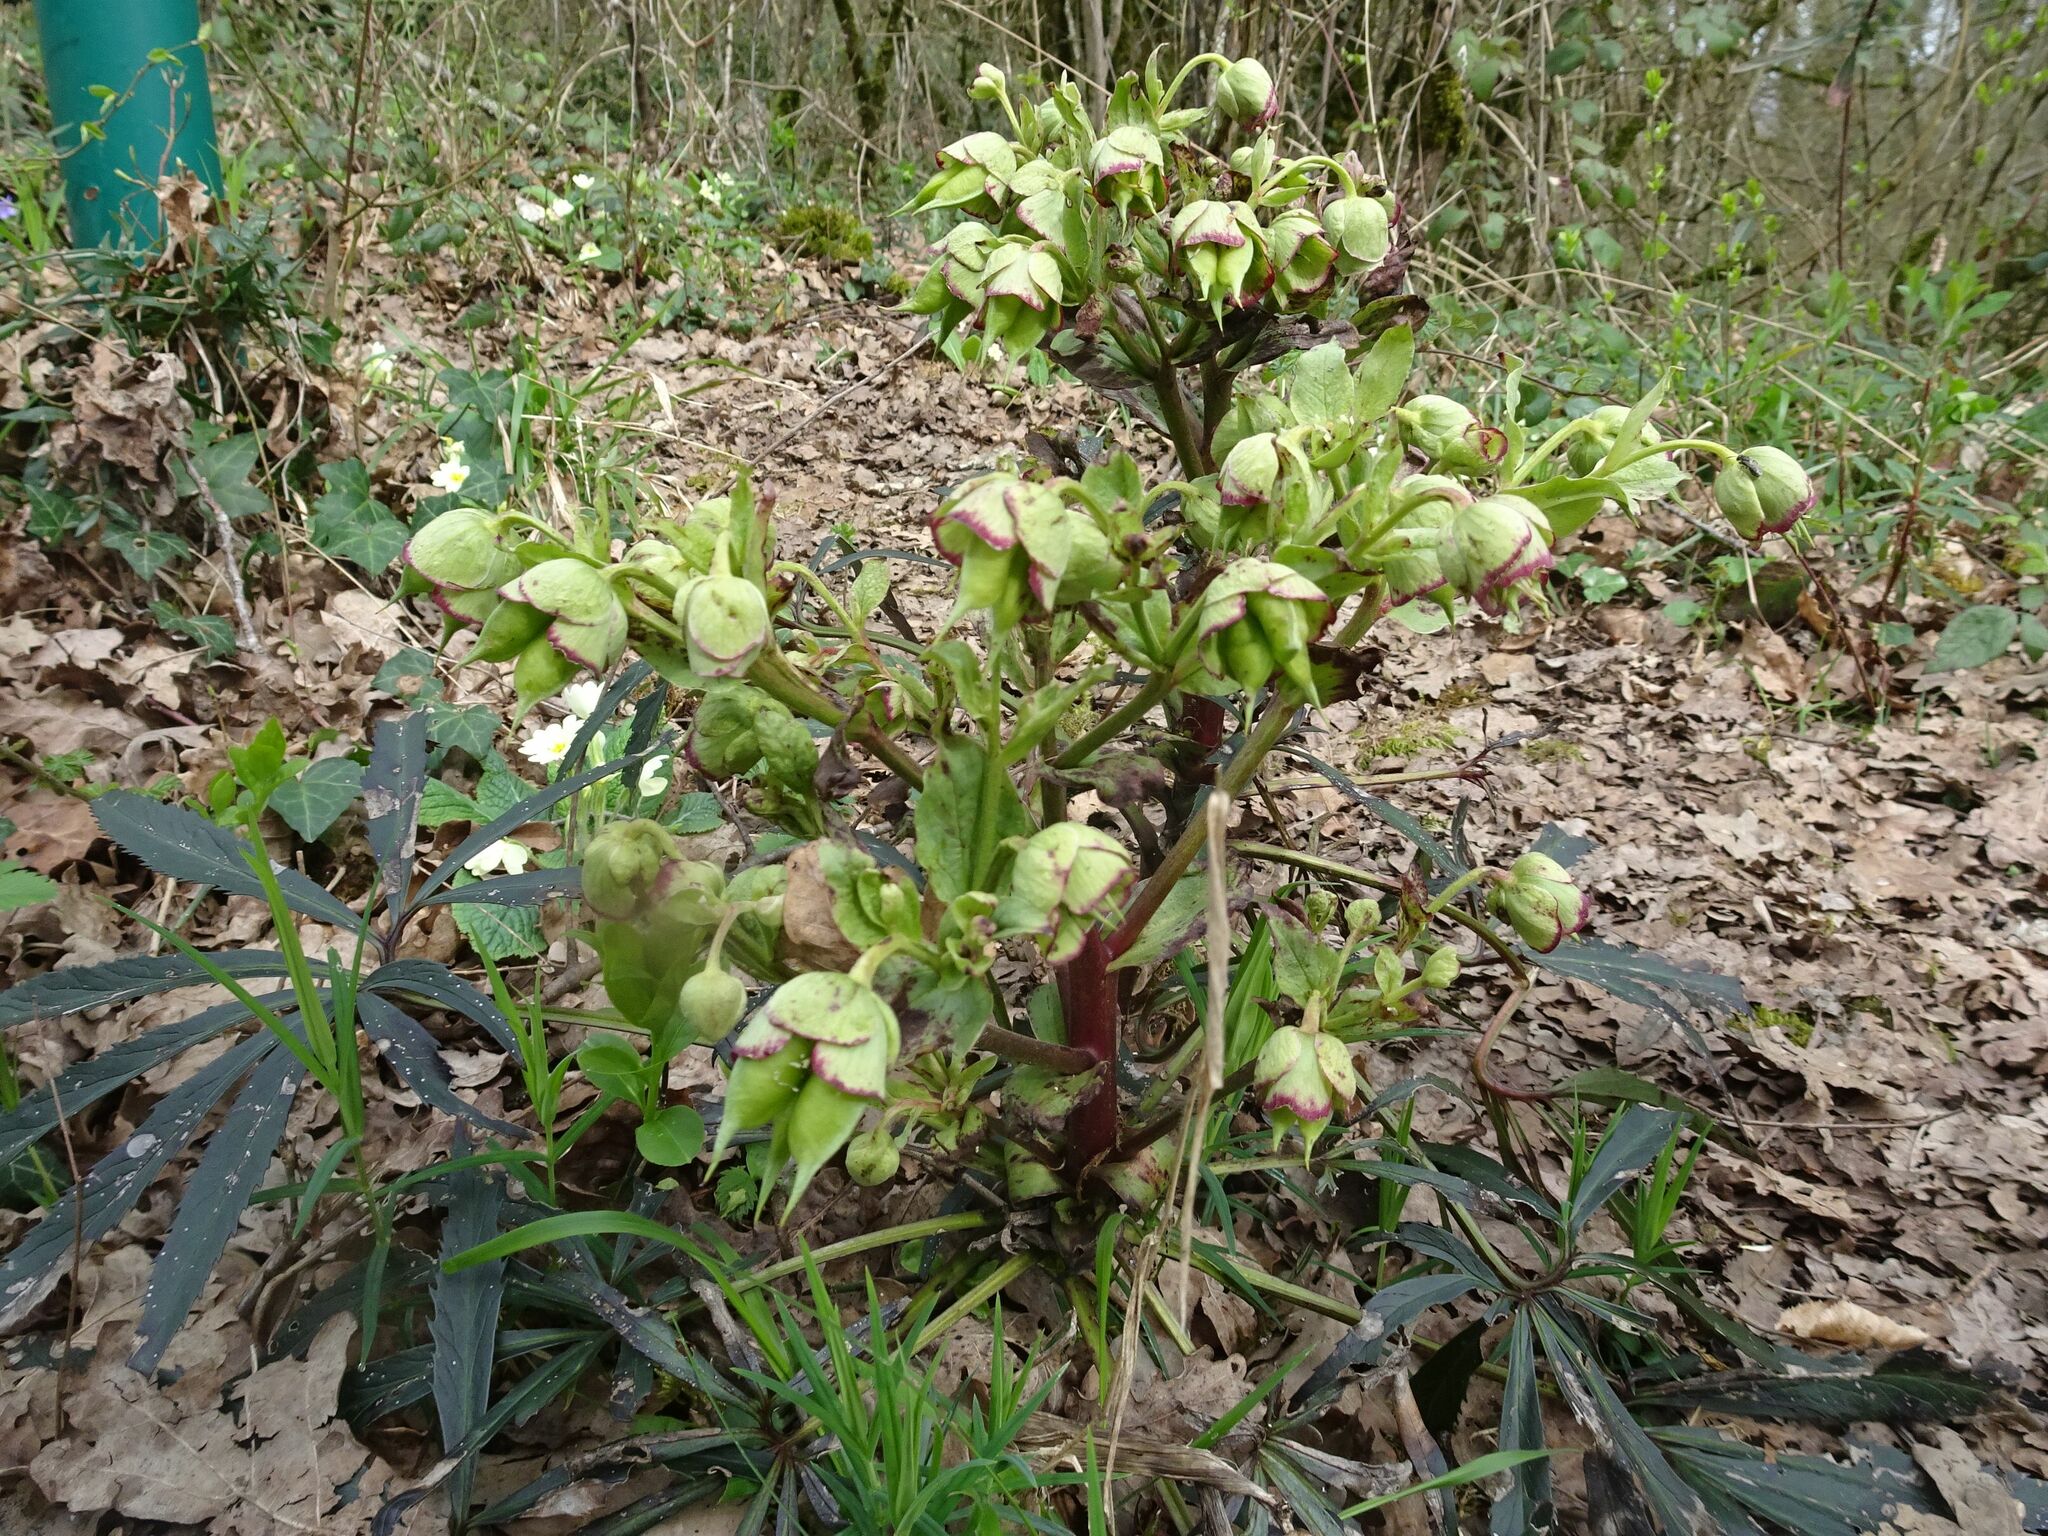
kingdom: Plantae
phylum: Tracheophyta
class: Magnoliopsida
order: Ranunculales
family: Ranunculaceae
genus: Helleborus
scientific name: Helleborus foetidus
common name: Stinking hellebore
